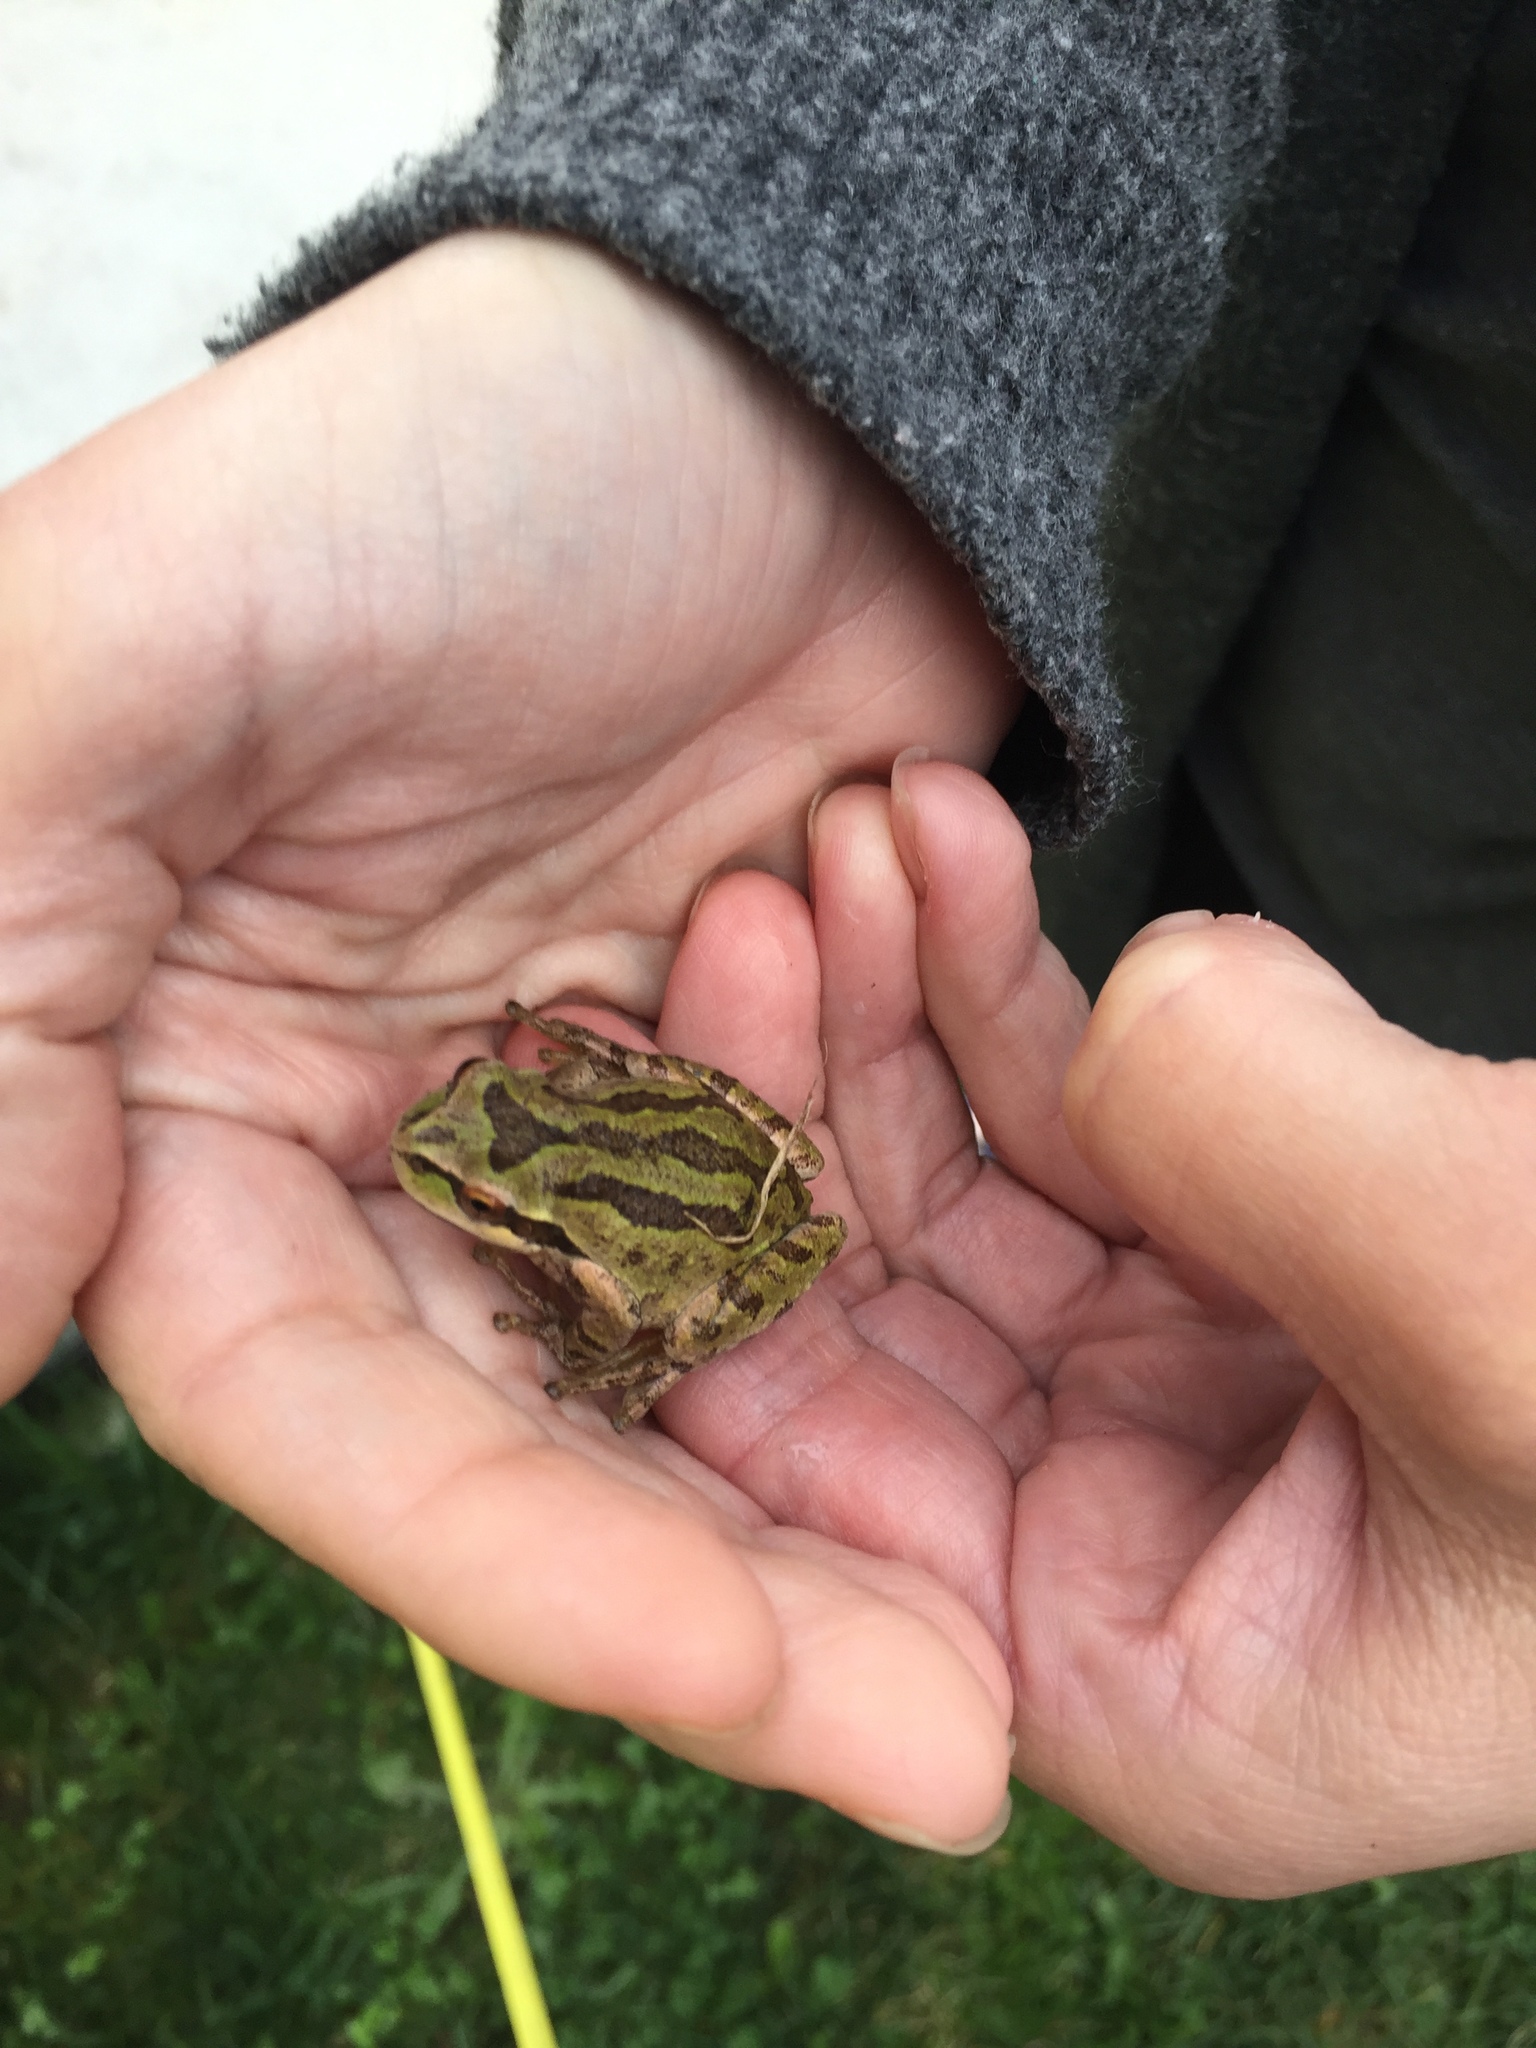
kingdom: Animalia
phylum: Chordata
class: Amphibia
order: Anura
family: Hylidae
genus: Pseudacris
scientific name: Pseudacris regilla
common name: Pacific chorus frog
